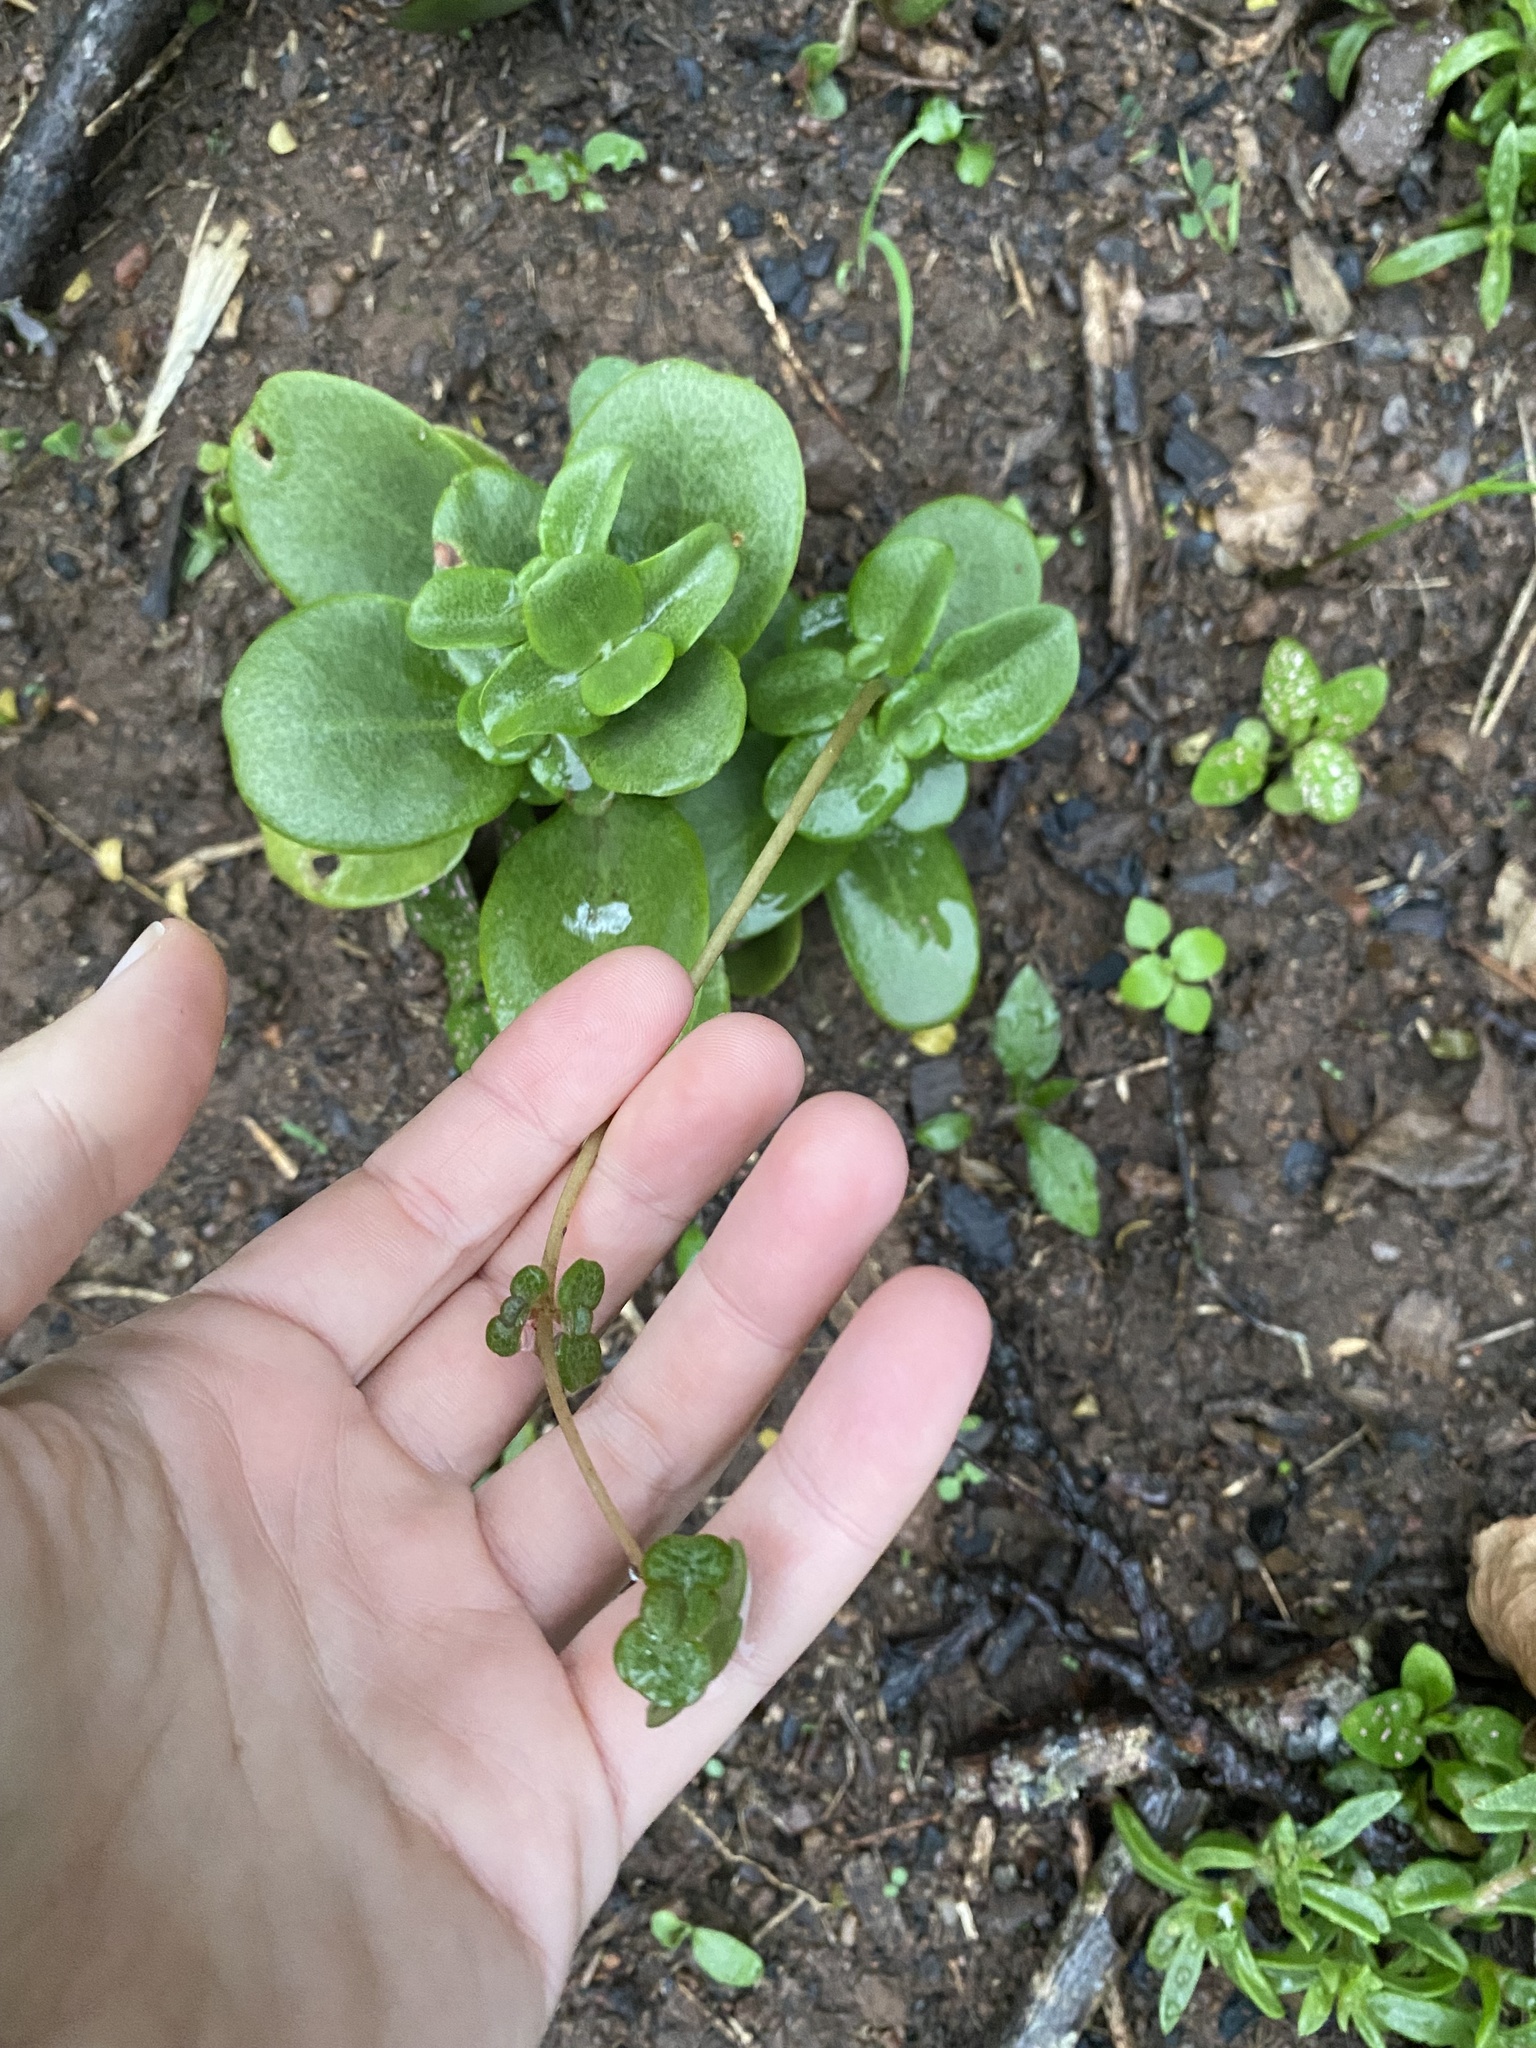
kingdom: Plantae
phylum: Tracheophyta
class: Magnoliopsida
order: Saxifragales
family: Crassulaceae
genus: Crassula
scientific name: Crassula multicava
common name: Cape province pygmyweed
